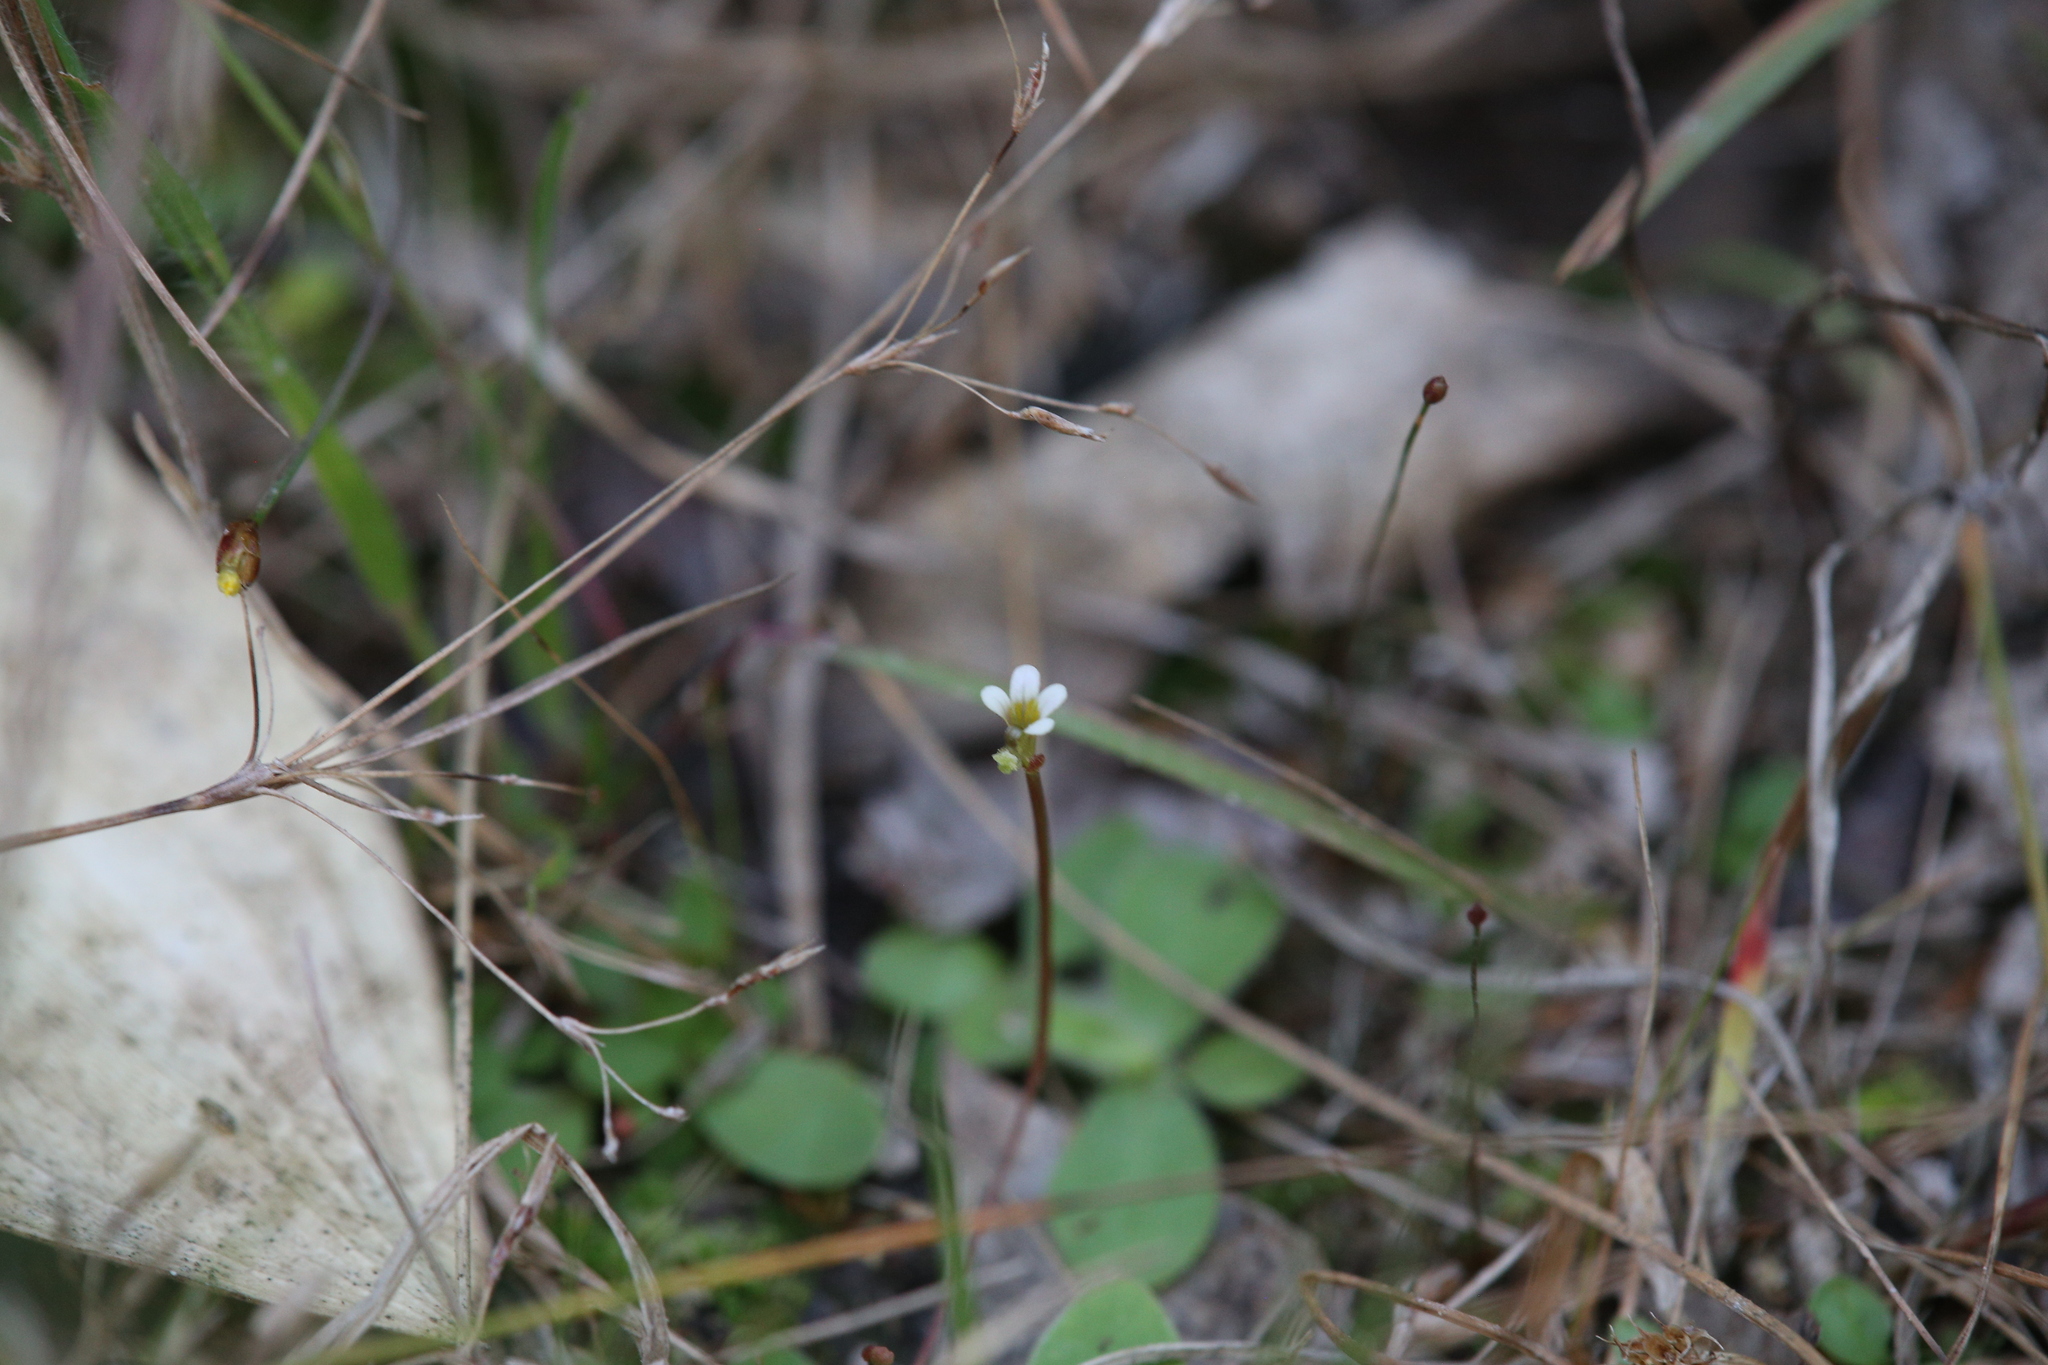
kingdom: Plantae
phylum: Tracheophyta
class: Magnoliopsida
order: Asterales
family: Stylidiaceae
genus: Stylidium
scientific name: Stylidium rotundifolium
